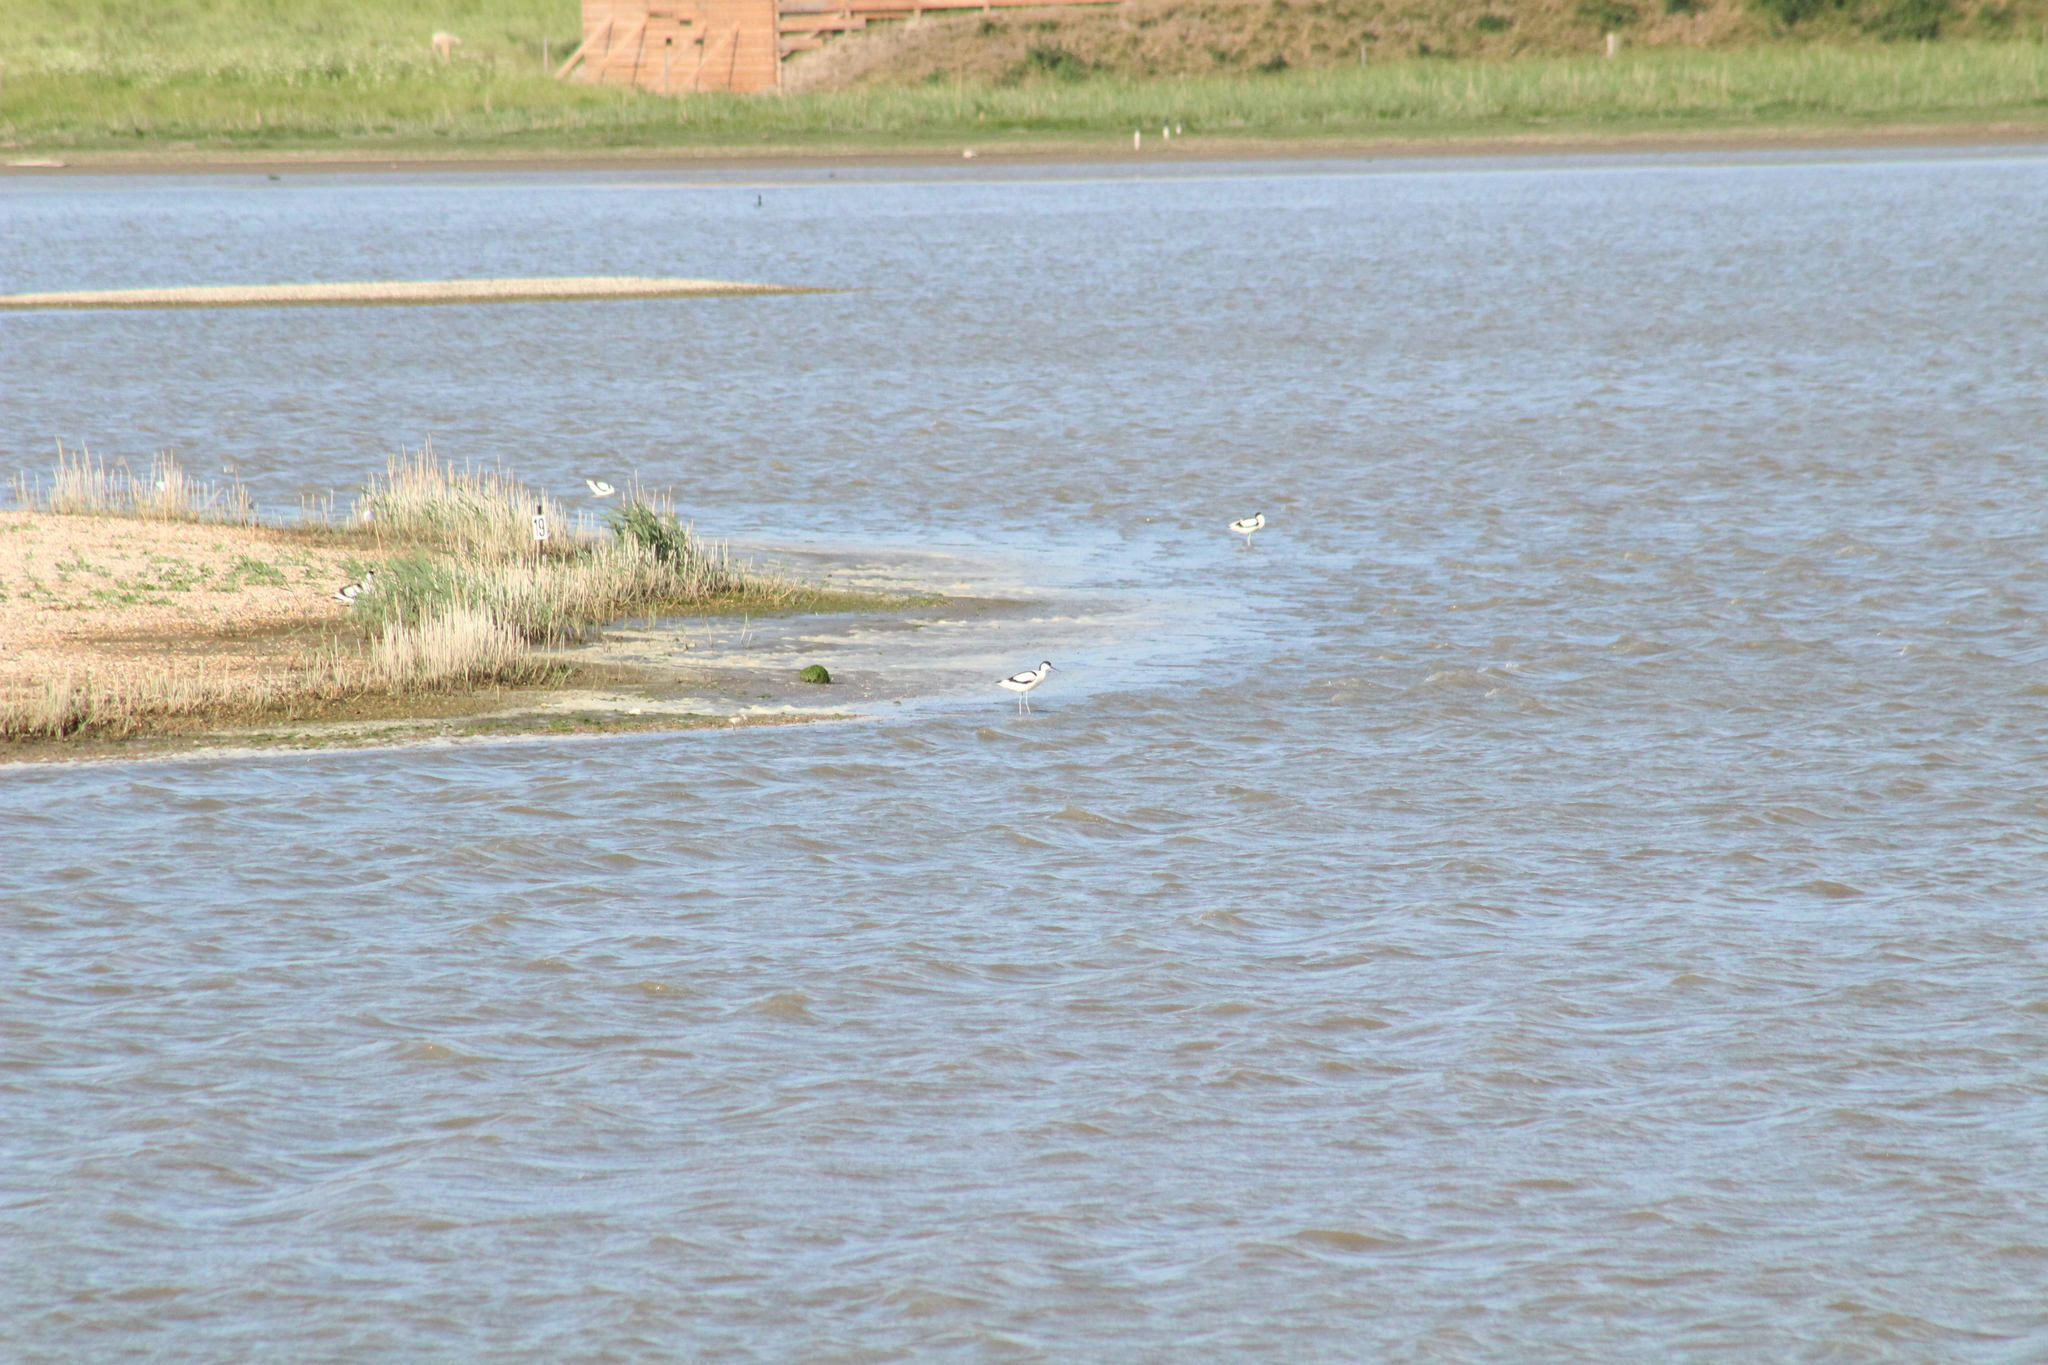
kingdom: Animalia
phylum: Chordata
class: Aves
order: Charadriiformes
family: Recurvirostridae
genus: Recurvirostra
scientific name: Recurvirostra avosetta
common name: Pied avocet
